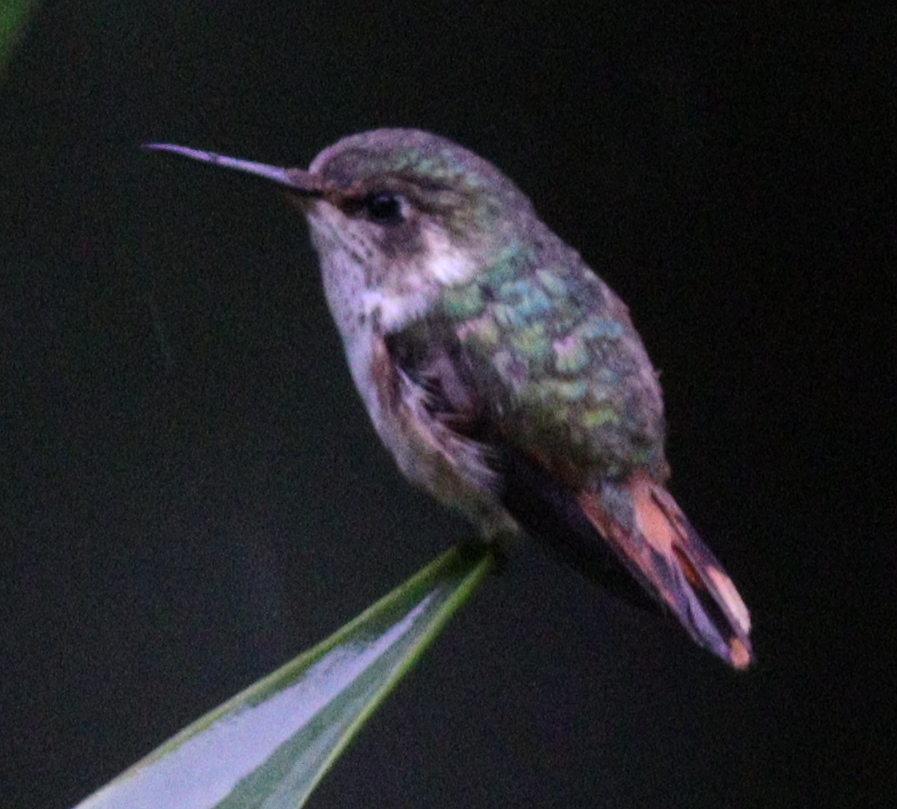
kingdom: Animalia
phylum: Chordata
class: Aves
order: Apodiformes
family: Trochilidae
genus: Selasphorus
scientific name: Selasphorus scintilla
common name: Scintillant hummingbird
